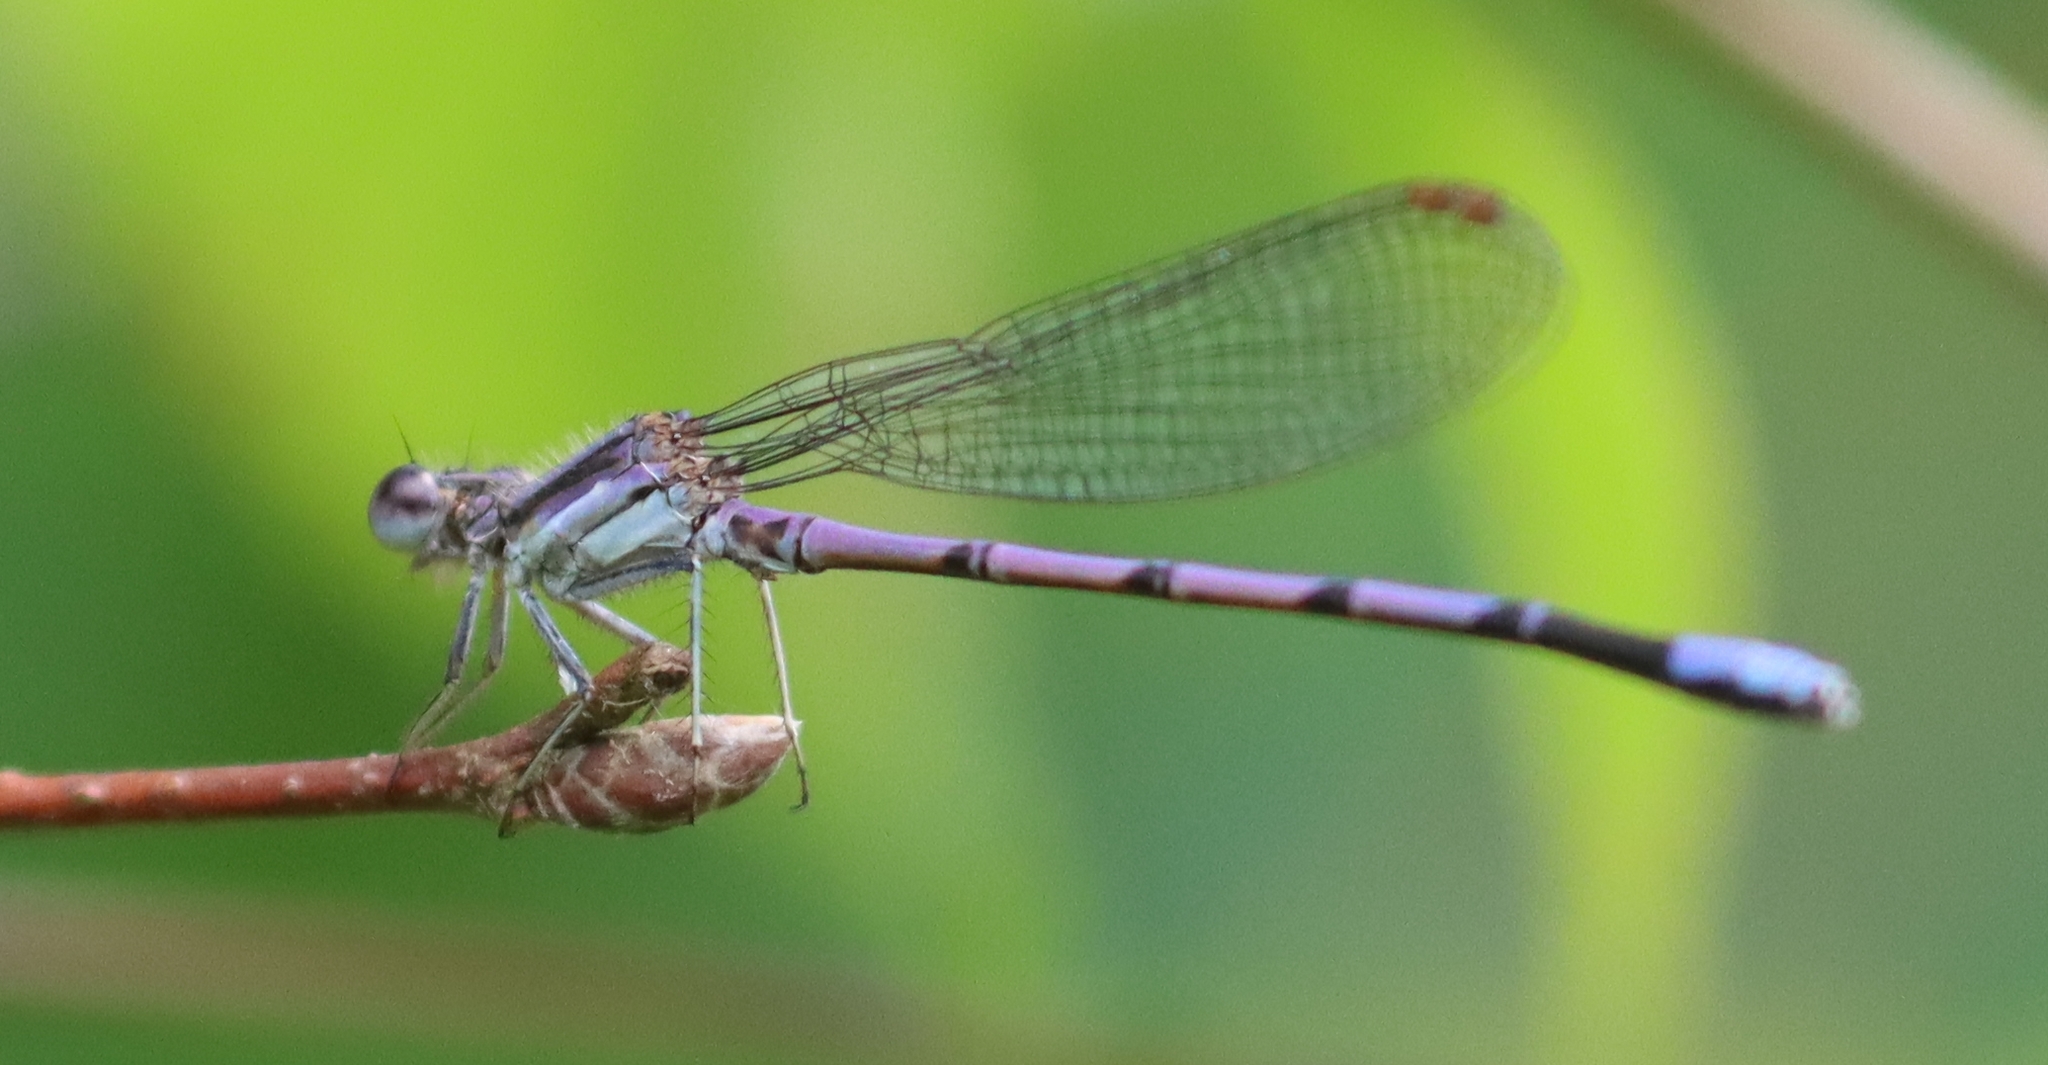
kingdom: Animalia
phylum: Arthropoda
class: Insecta
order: Odonata
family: Coenagrionidae
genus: Argia
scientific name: Argia fumipennis
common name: Variable dancer
